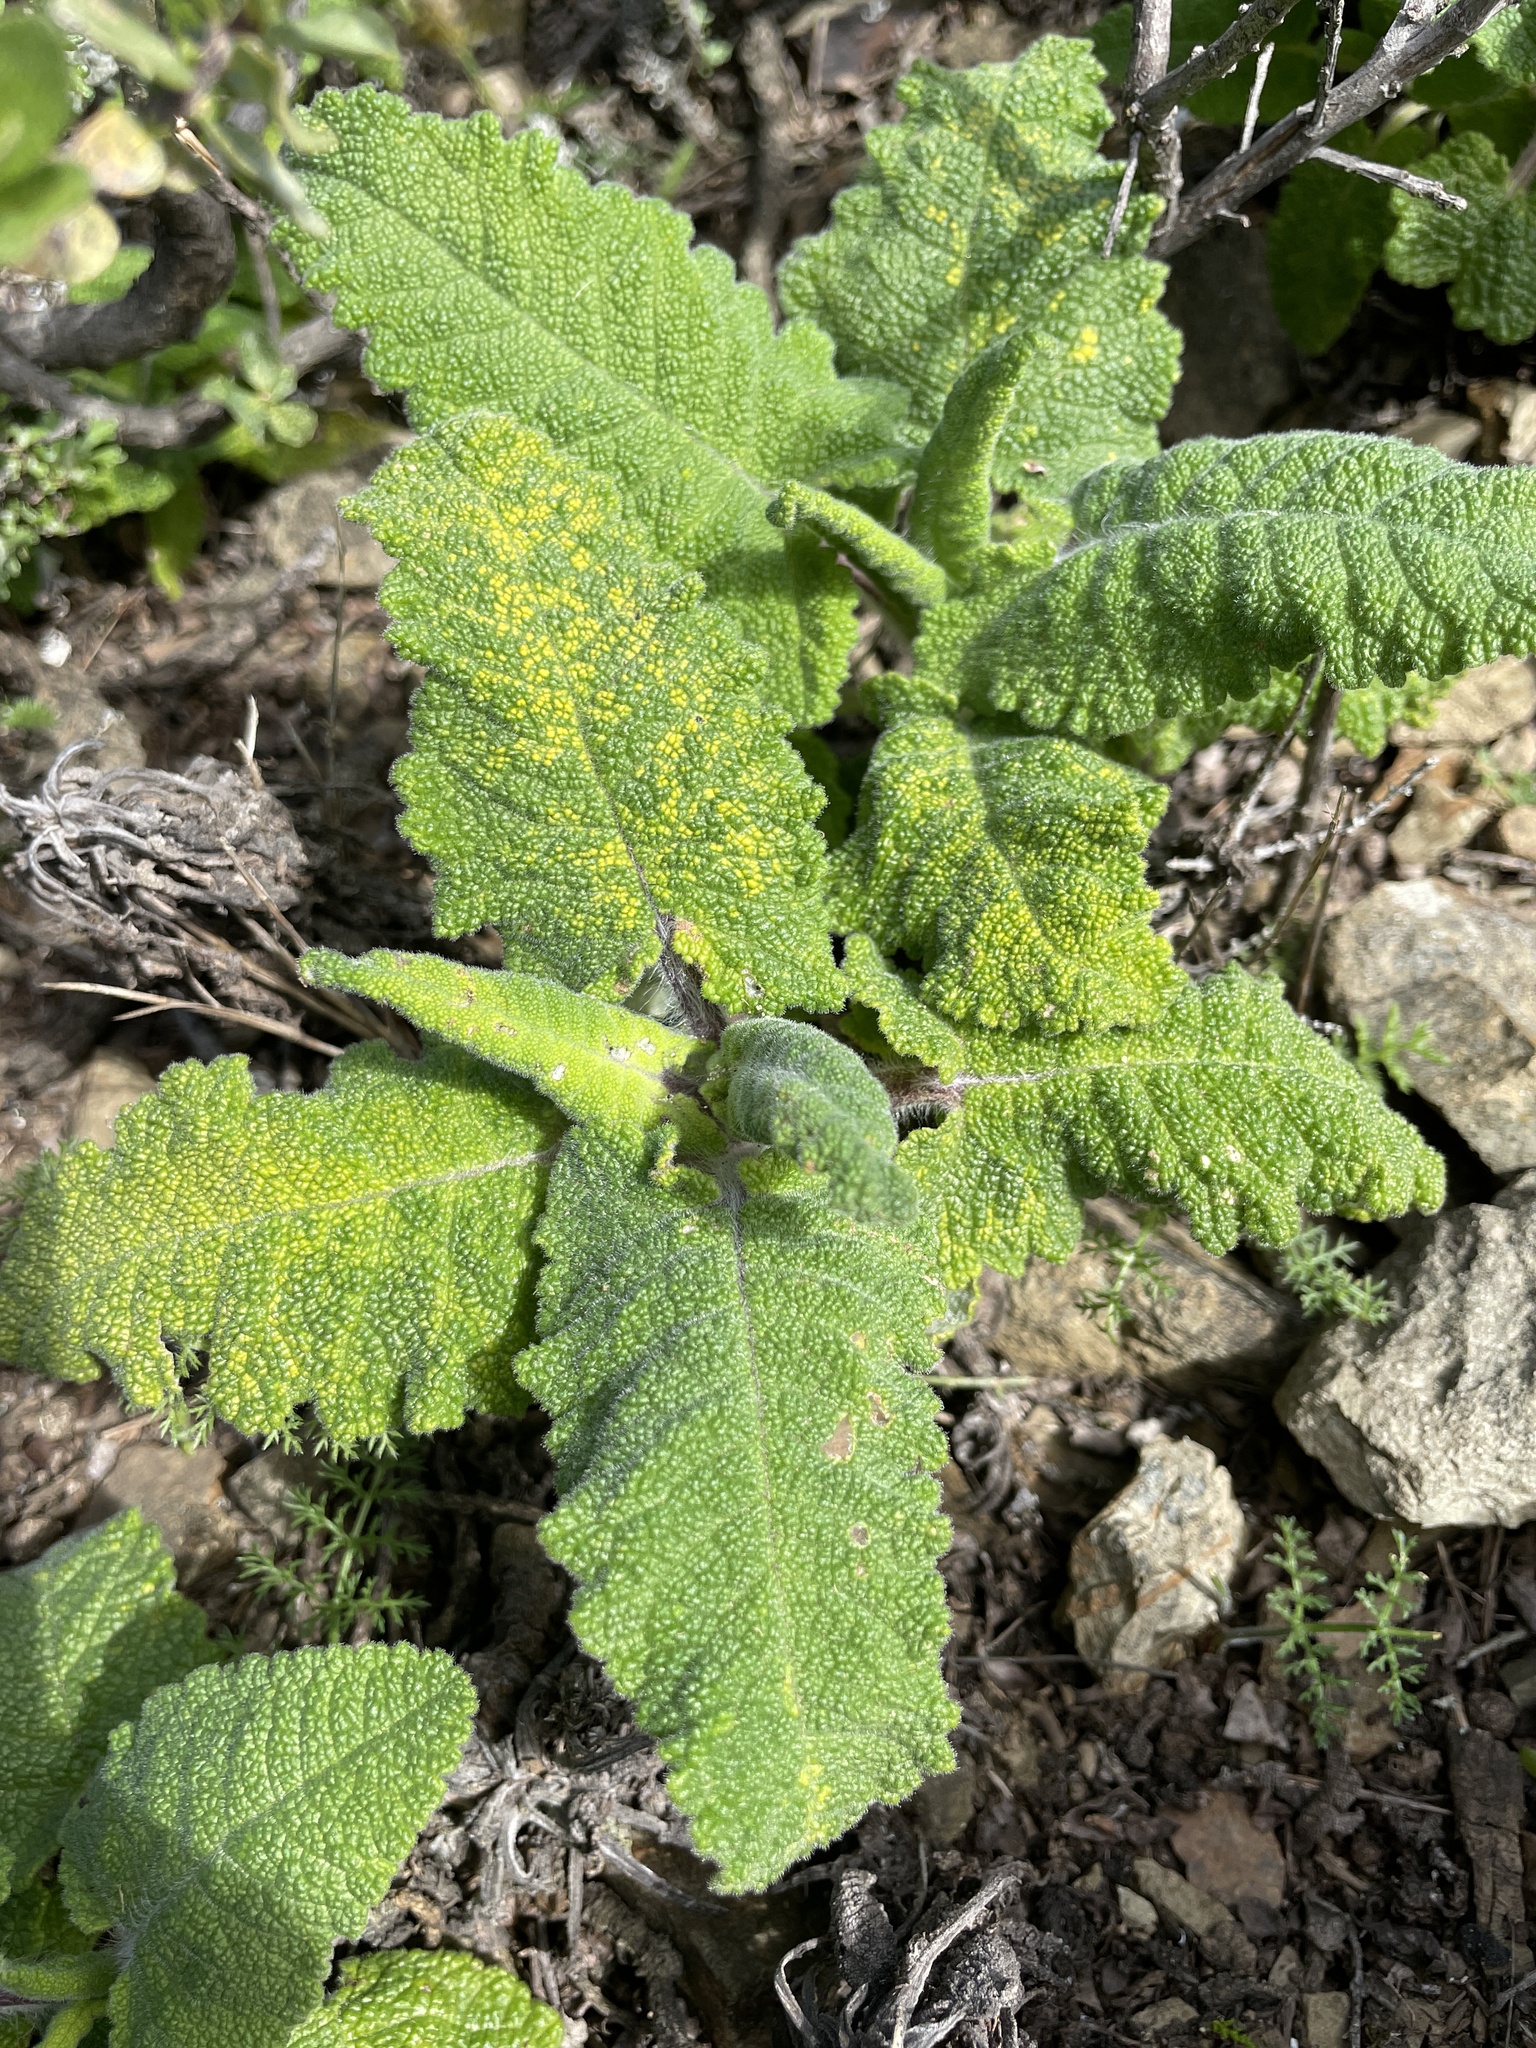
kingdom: Plantae
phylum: Tracheophyta
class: Magnoliopsida
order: Lamiales
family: Lamiaceae
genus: Salvia
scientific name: Salvia spathacea
